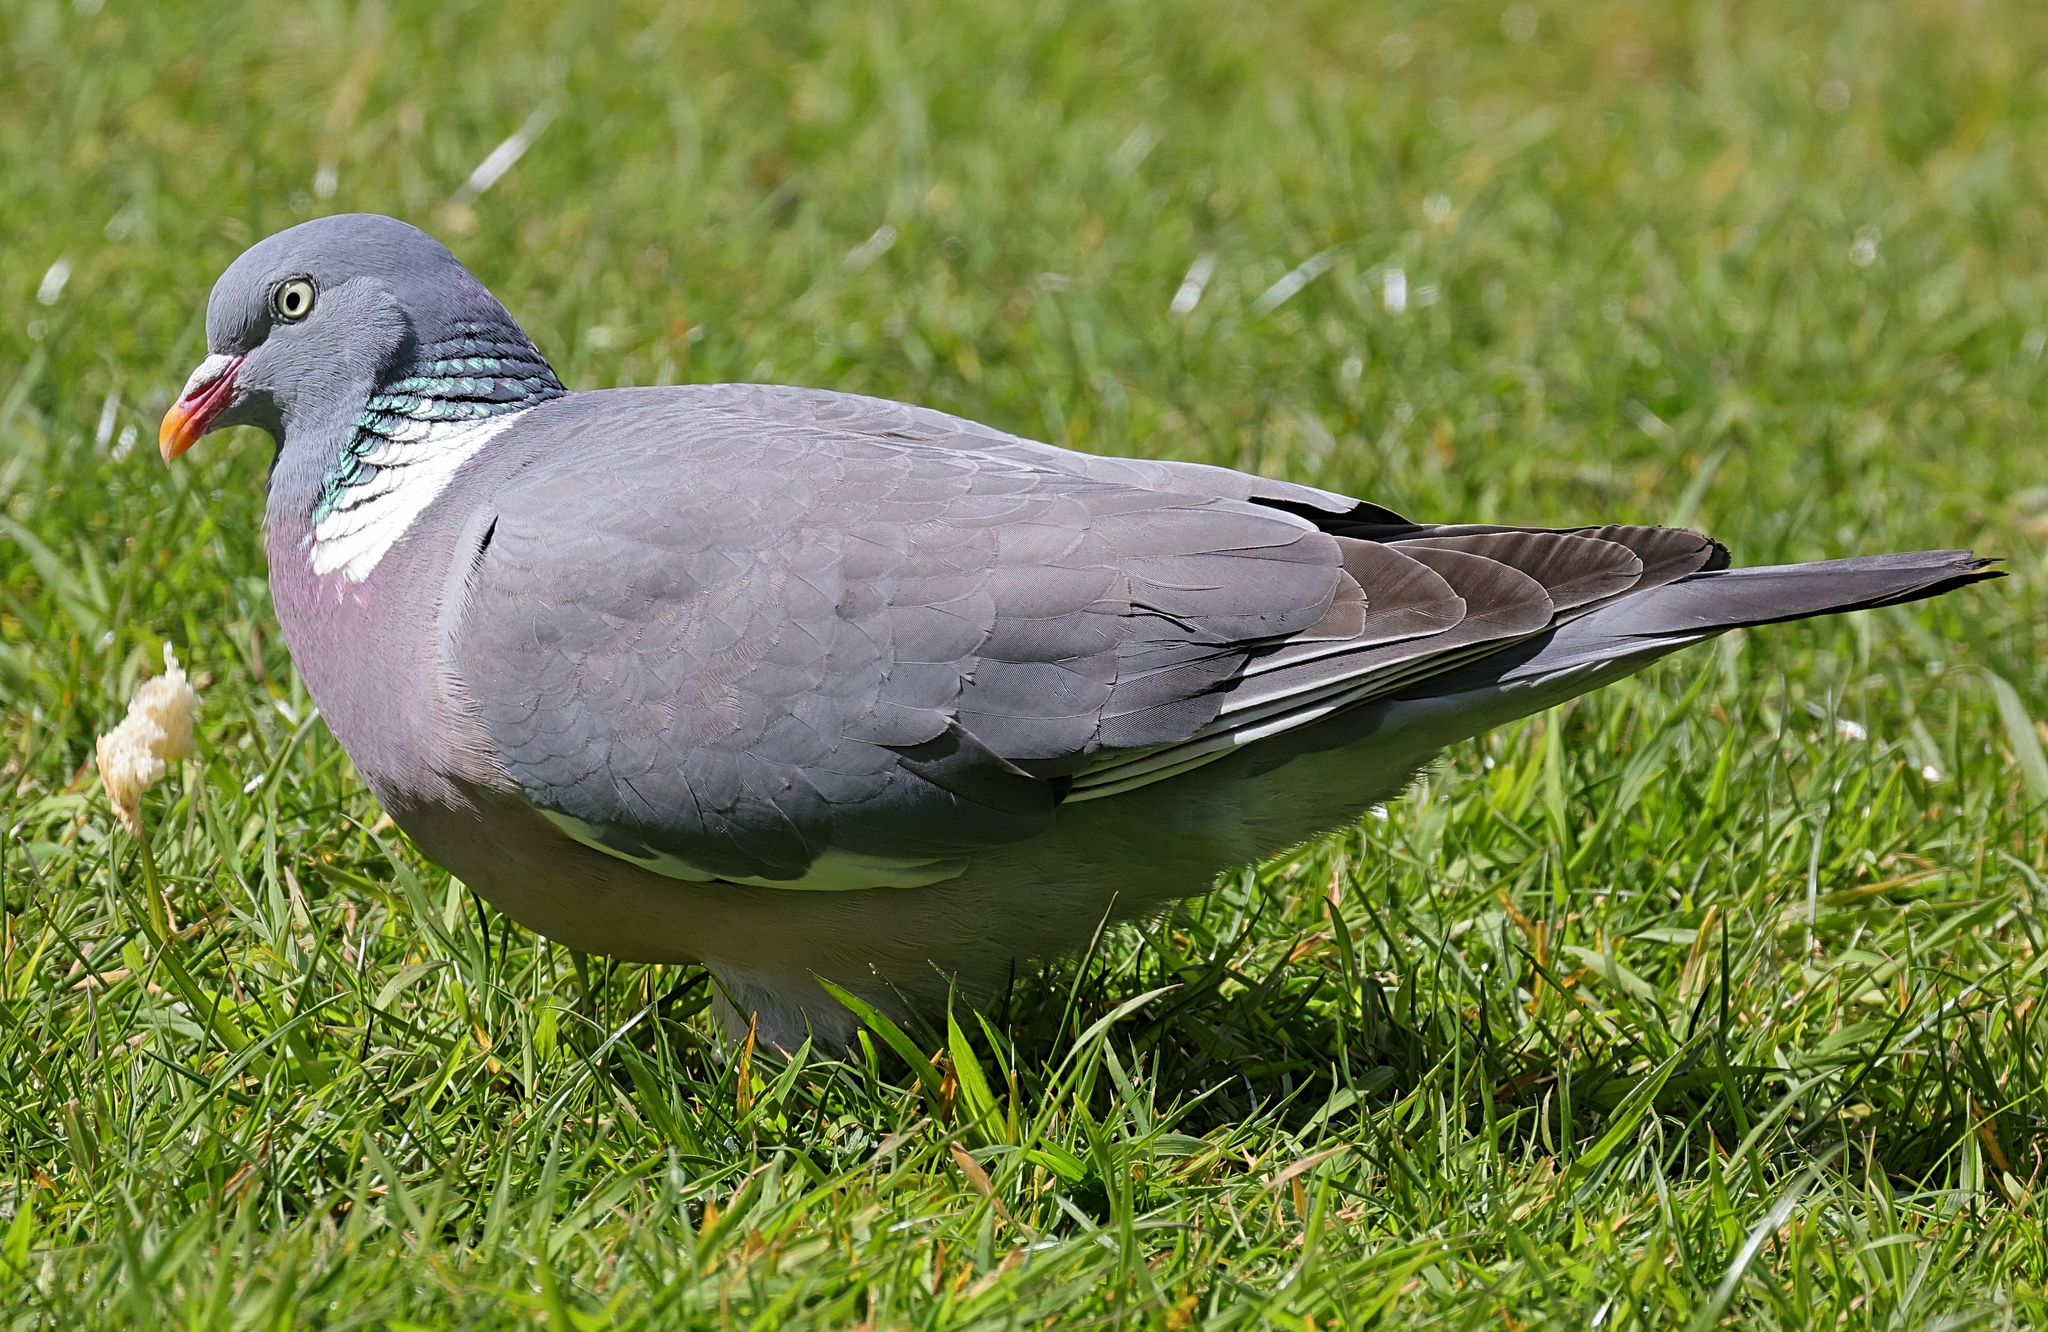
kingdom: Animalia
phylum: Chordata
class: Aves
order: Columbiformes
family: Columbidae
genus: Columba
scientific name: Columba palumbus
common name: Common wood pigeon
